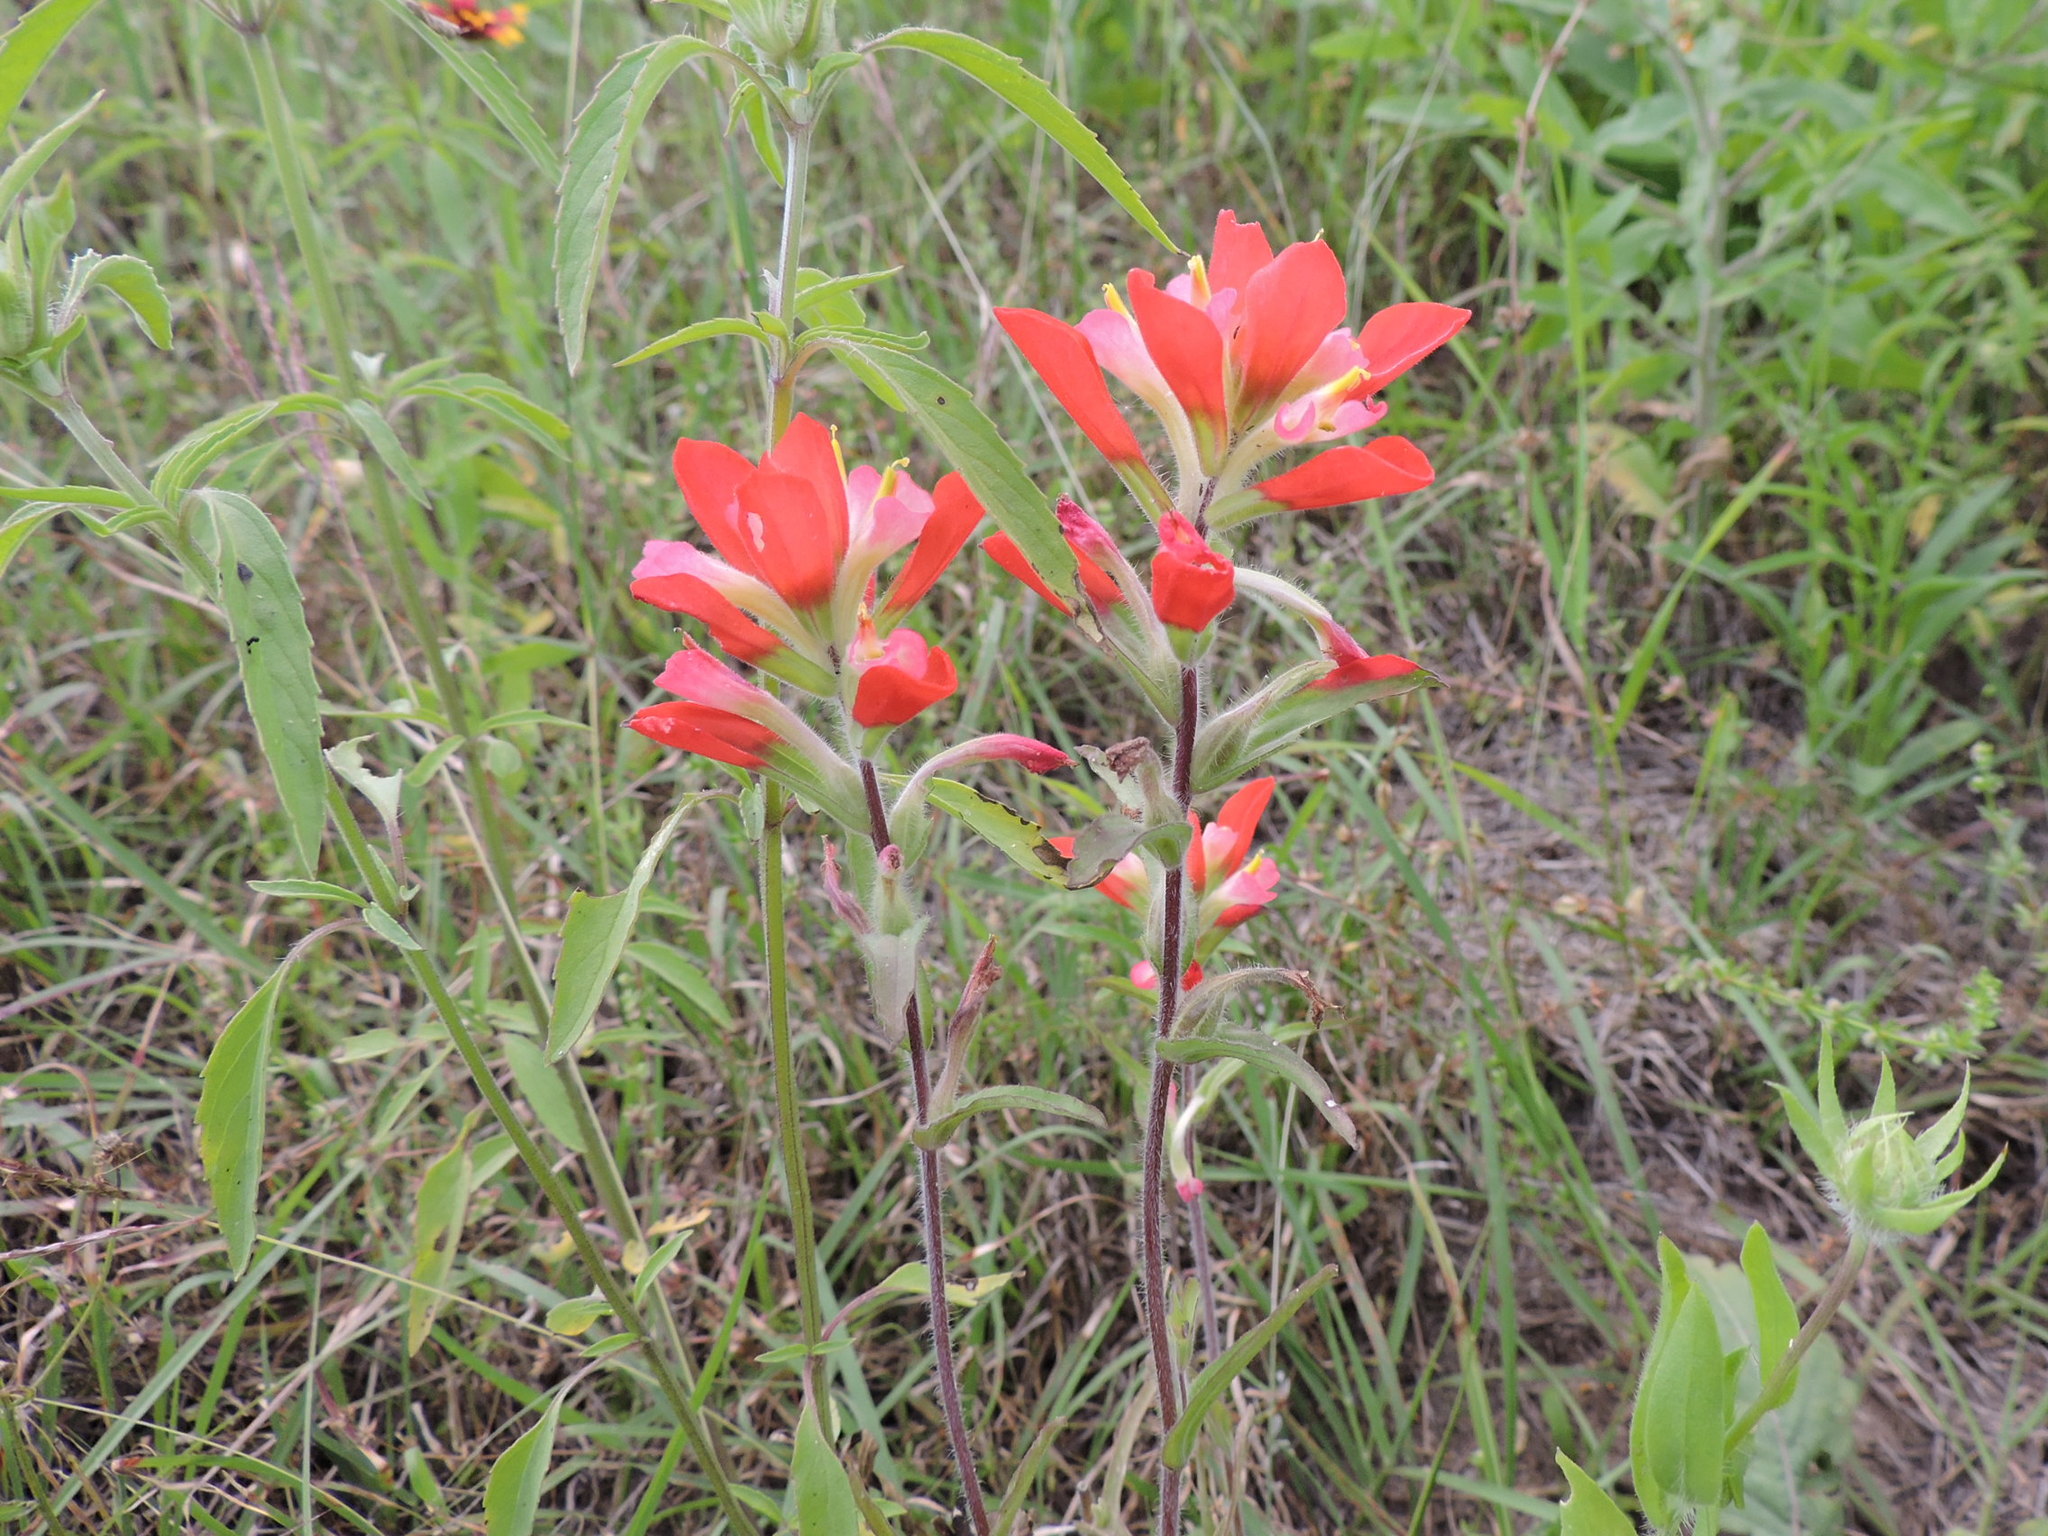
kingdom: Plantae
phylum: Tracheophyta
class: Magnoliopsida
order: Lamiales
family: Orobanchaceae
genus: Castilleja
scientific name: Castilleja indivisa
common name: Texas paintbrush
